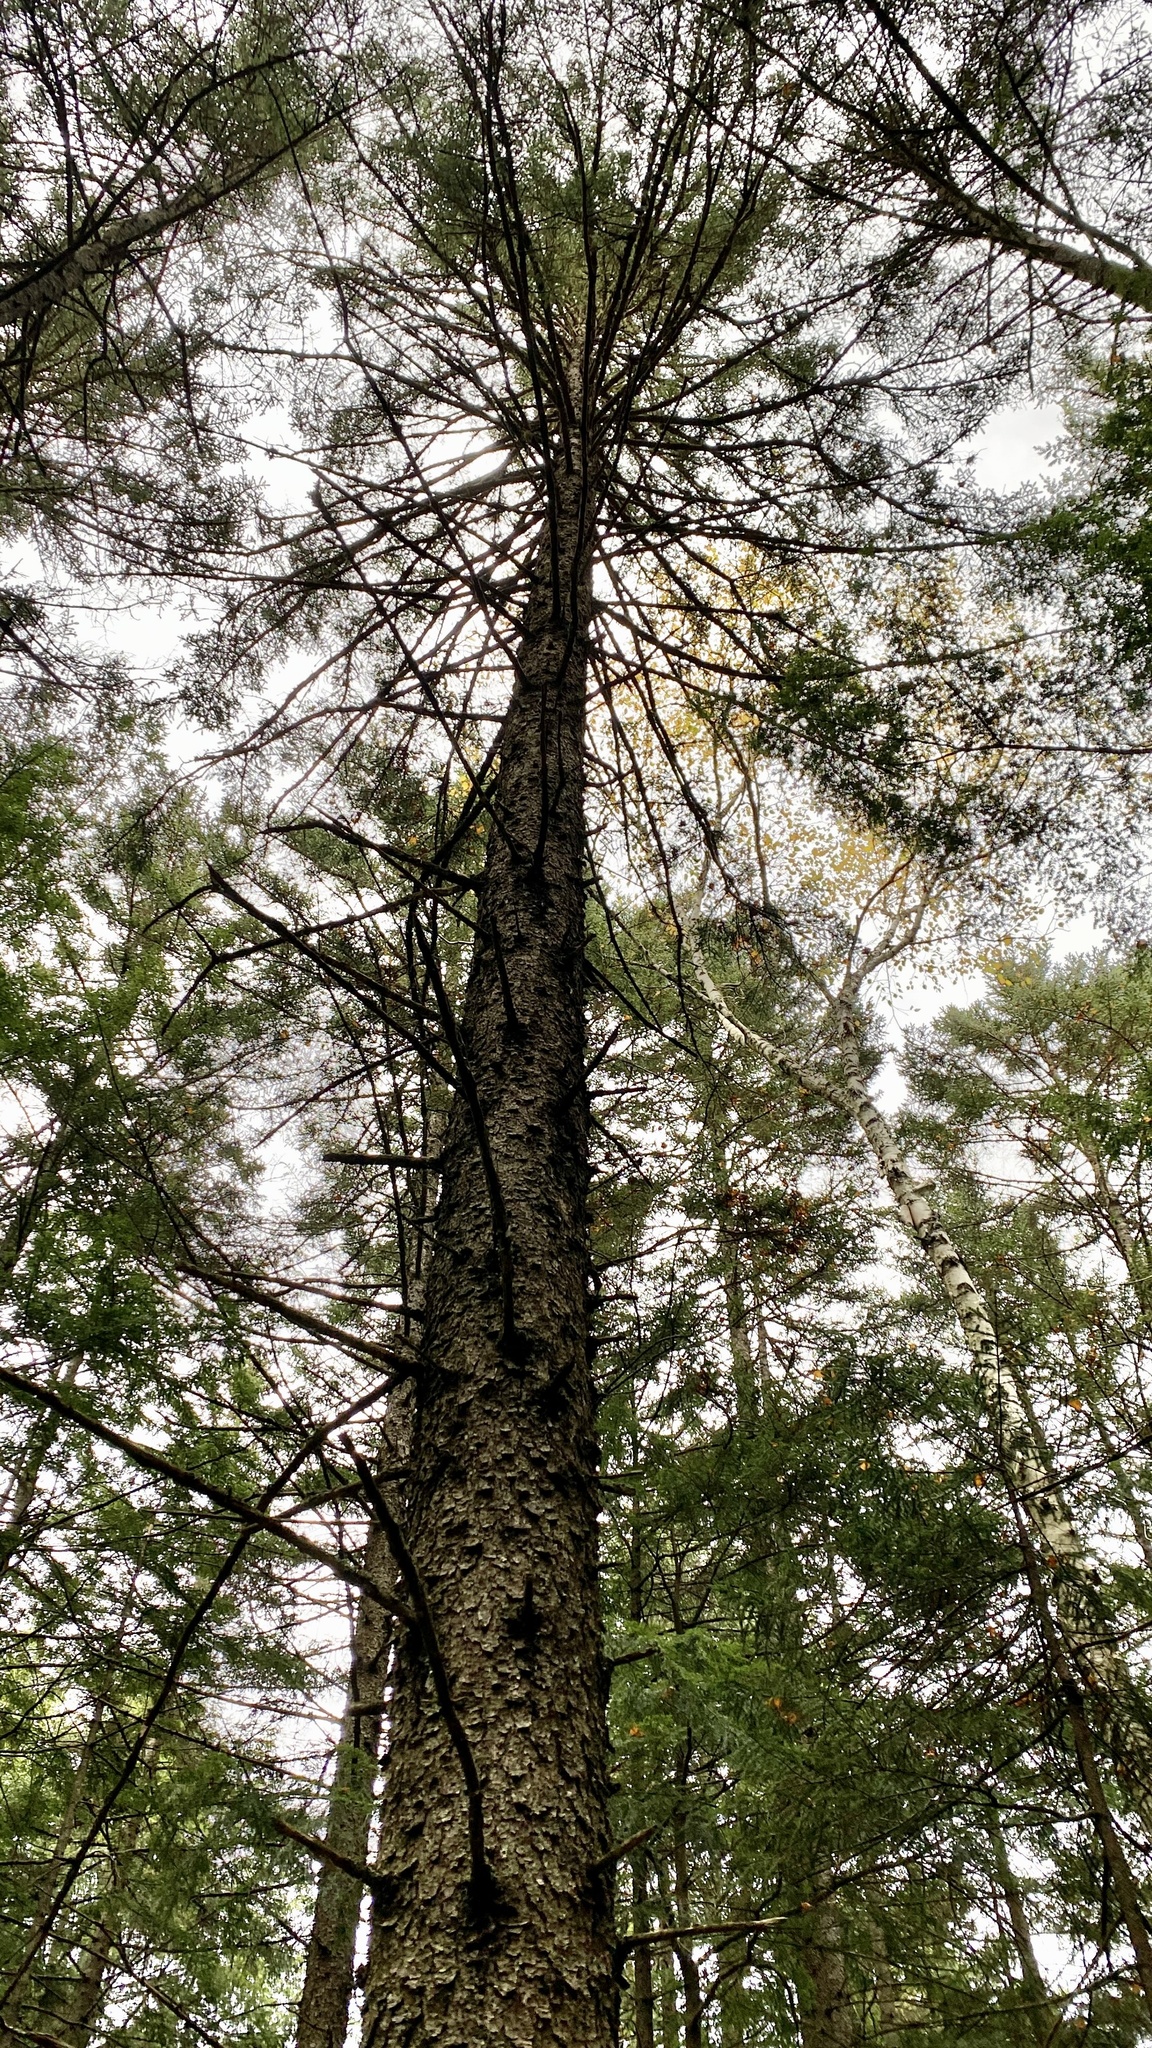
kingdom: Plantae
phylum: Tracheophyta
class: Pinopsida
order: Pinales
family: Pinaceae
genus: Picea
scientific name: Picea rubens
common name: Red spruce
